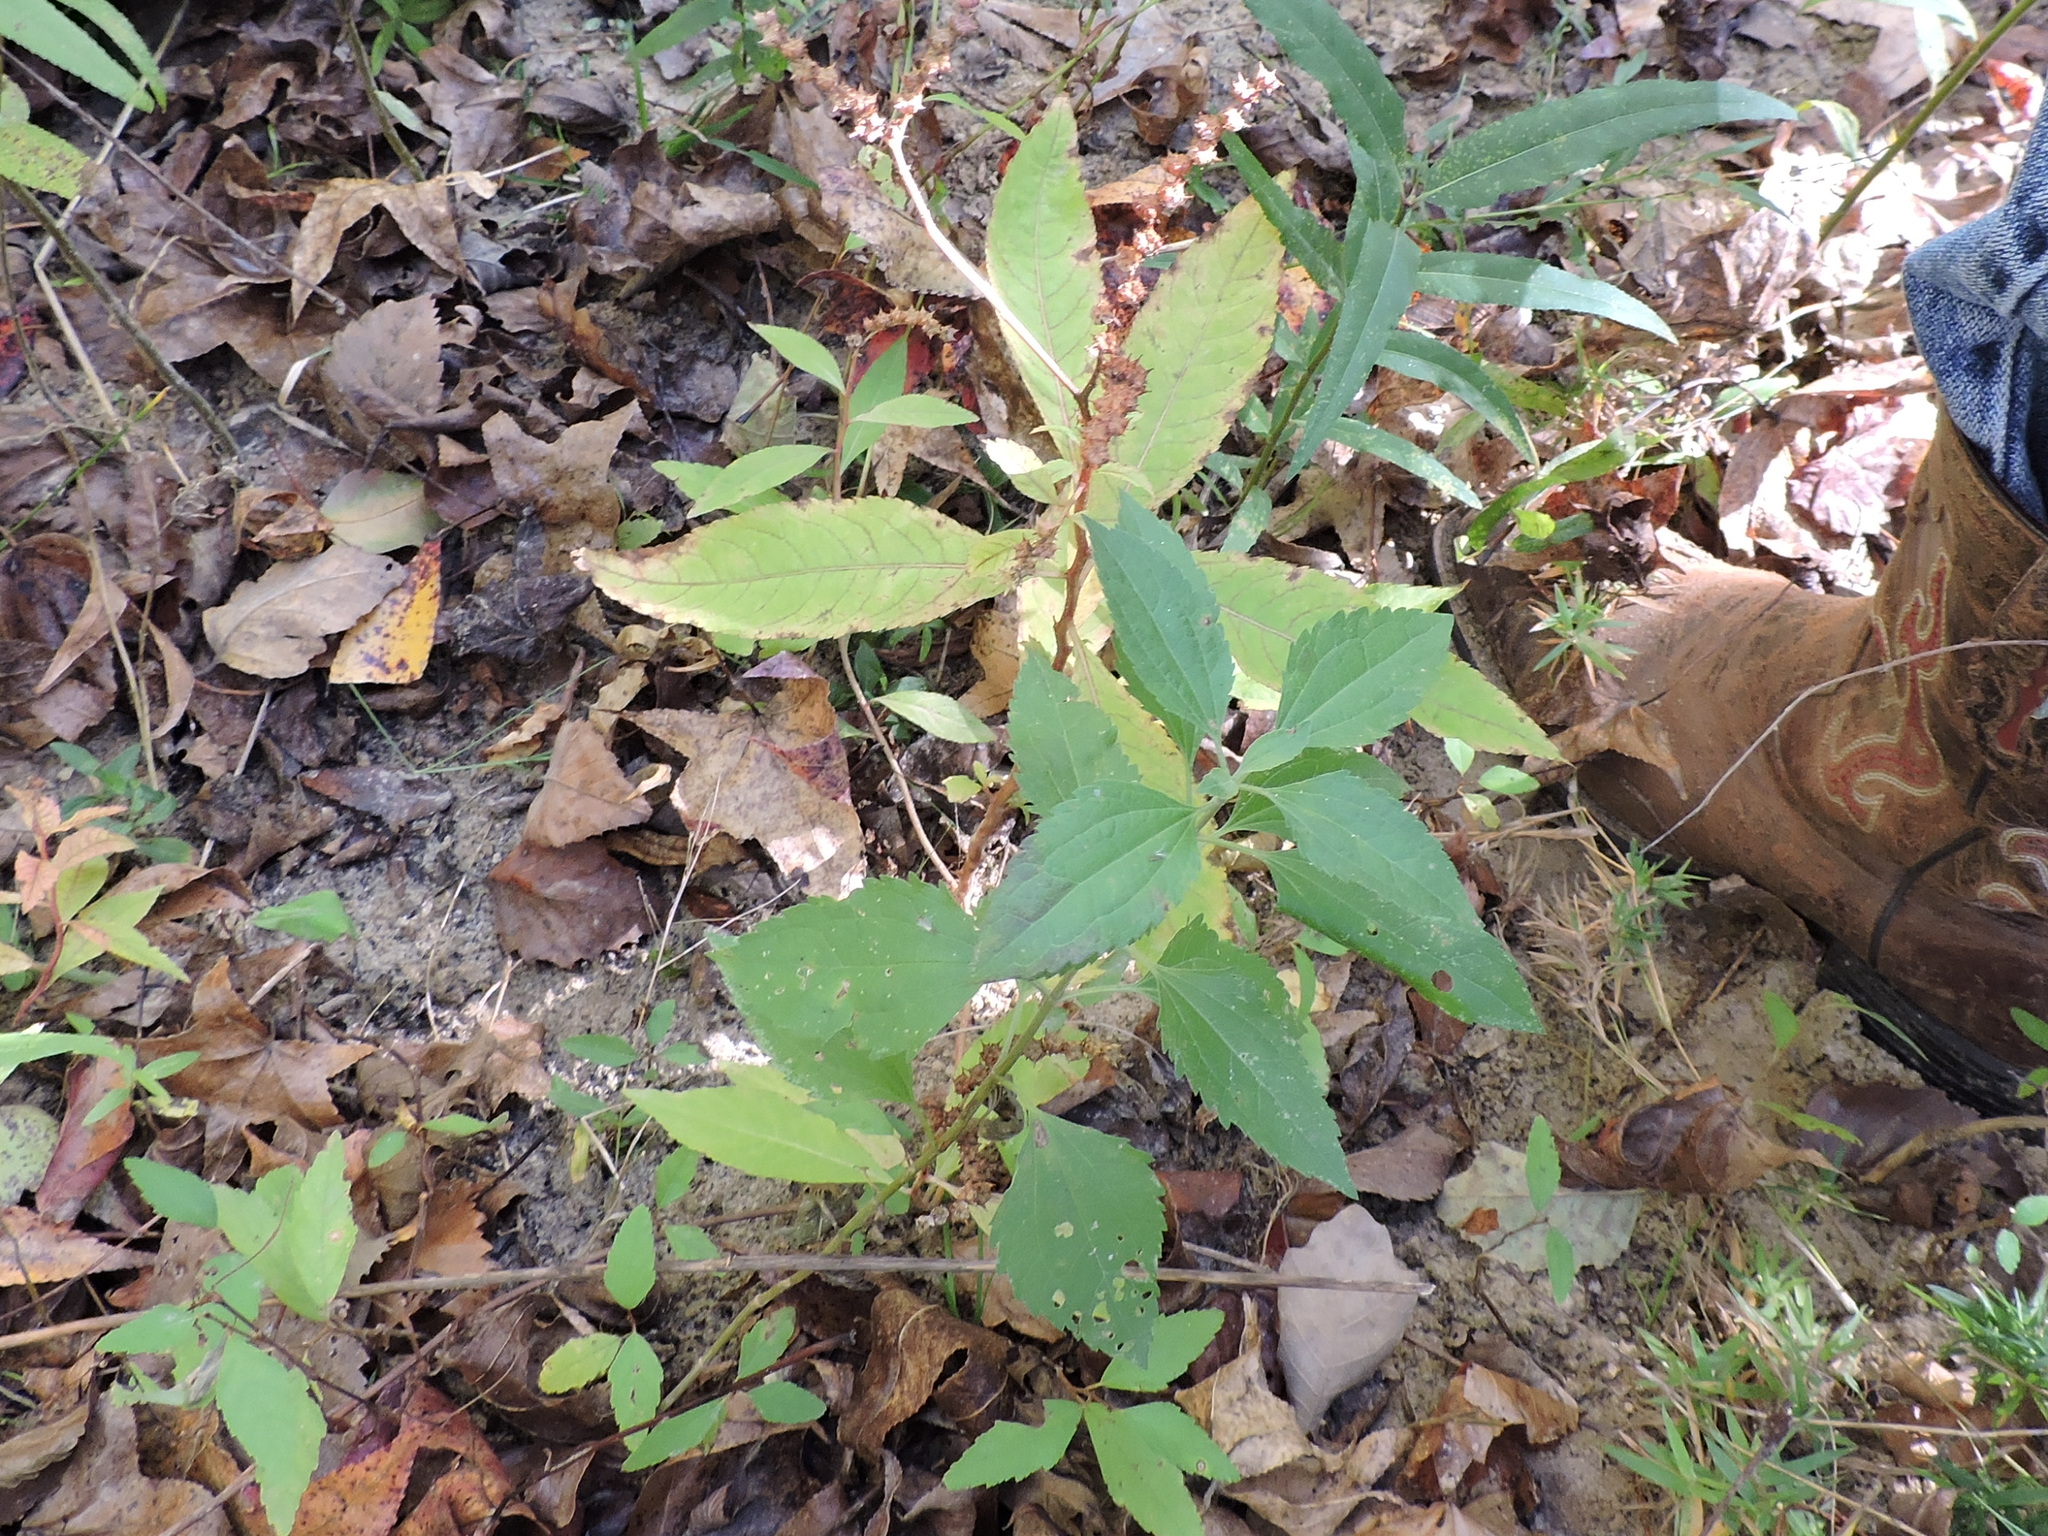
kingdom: Plantae
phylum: Tracheophyta
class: Magnoliopsida
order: Saxifragales
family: Penthoraceae
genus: Penthorum
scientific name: Penthorum sedoides
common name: Ditch stonecrop
